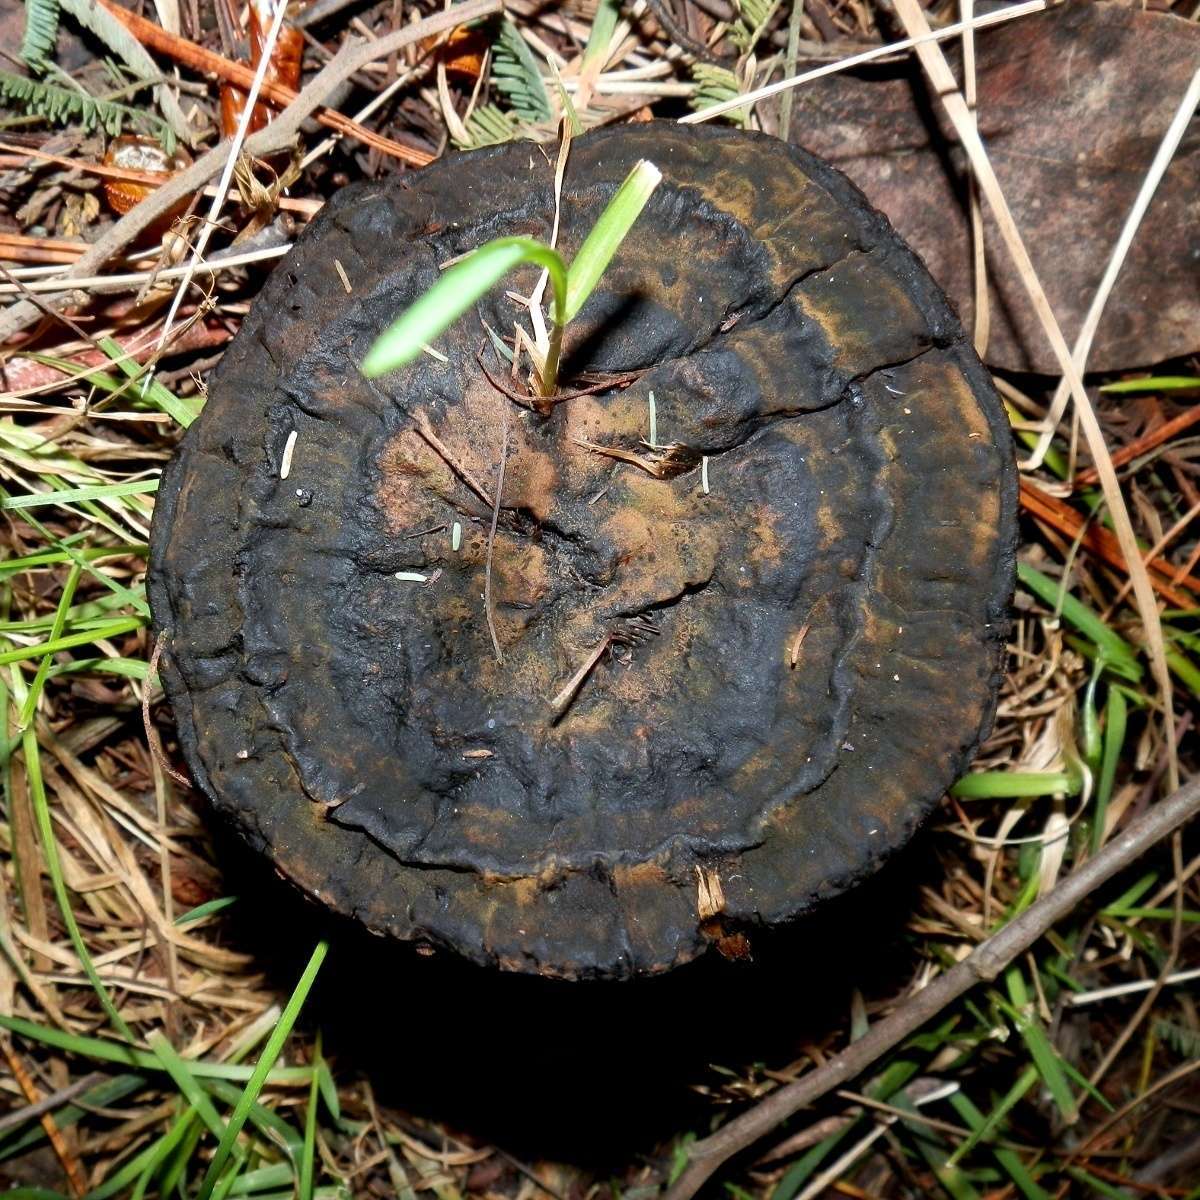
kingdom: Fungi
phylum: Basidiomycota
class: Agaricomycetes
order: Polyporales
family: Ganodermataceae
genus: Sanguinoderma
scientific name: Sanguinoderma rude
